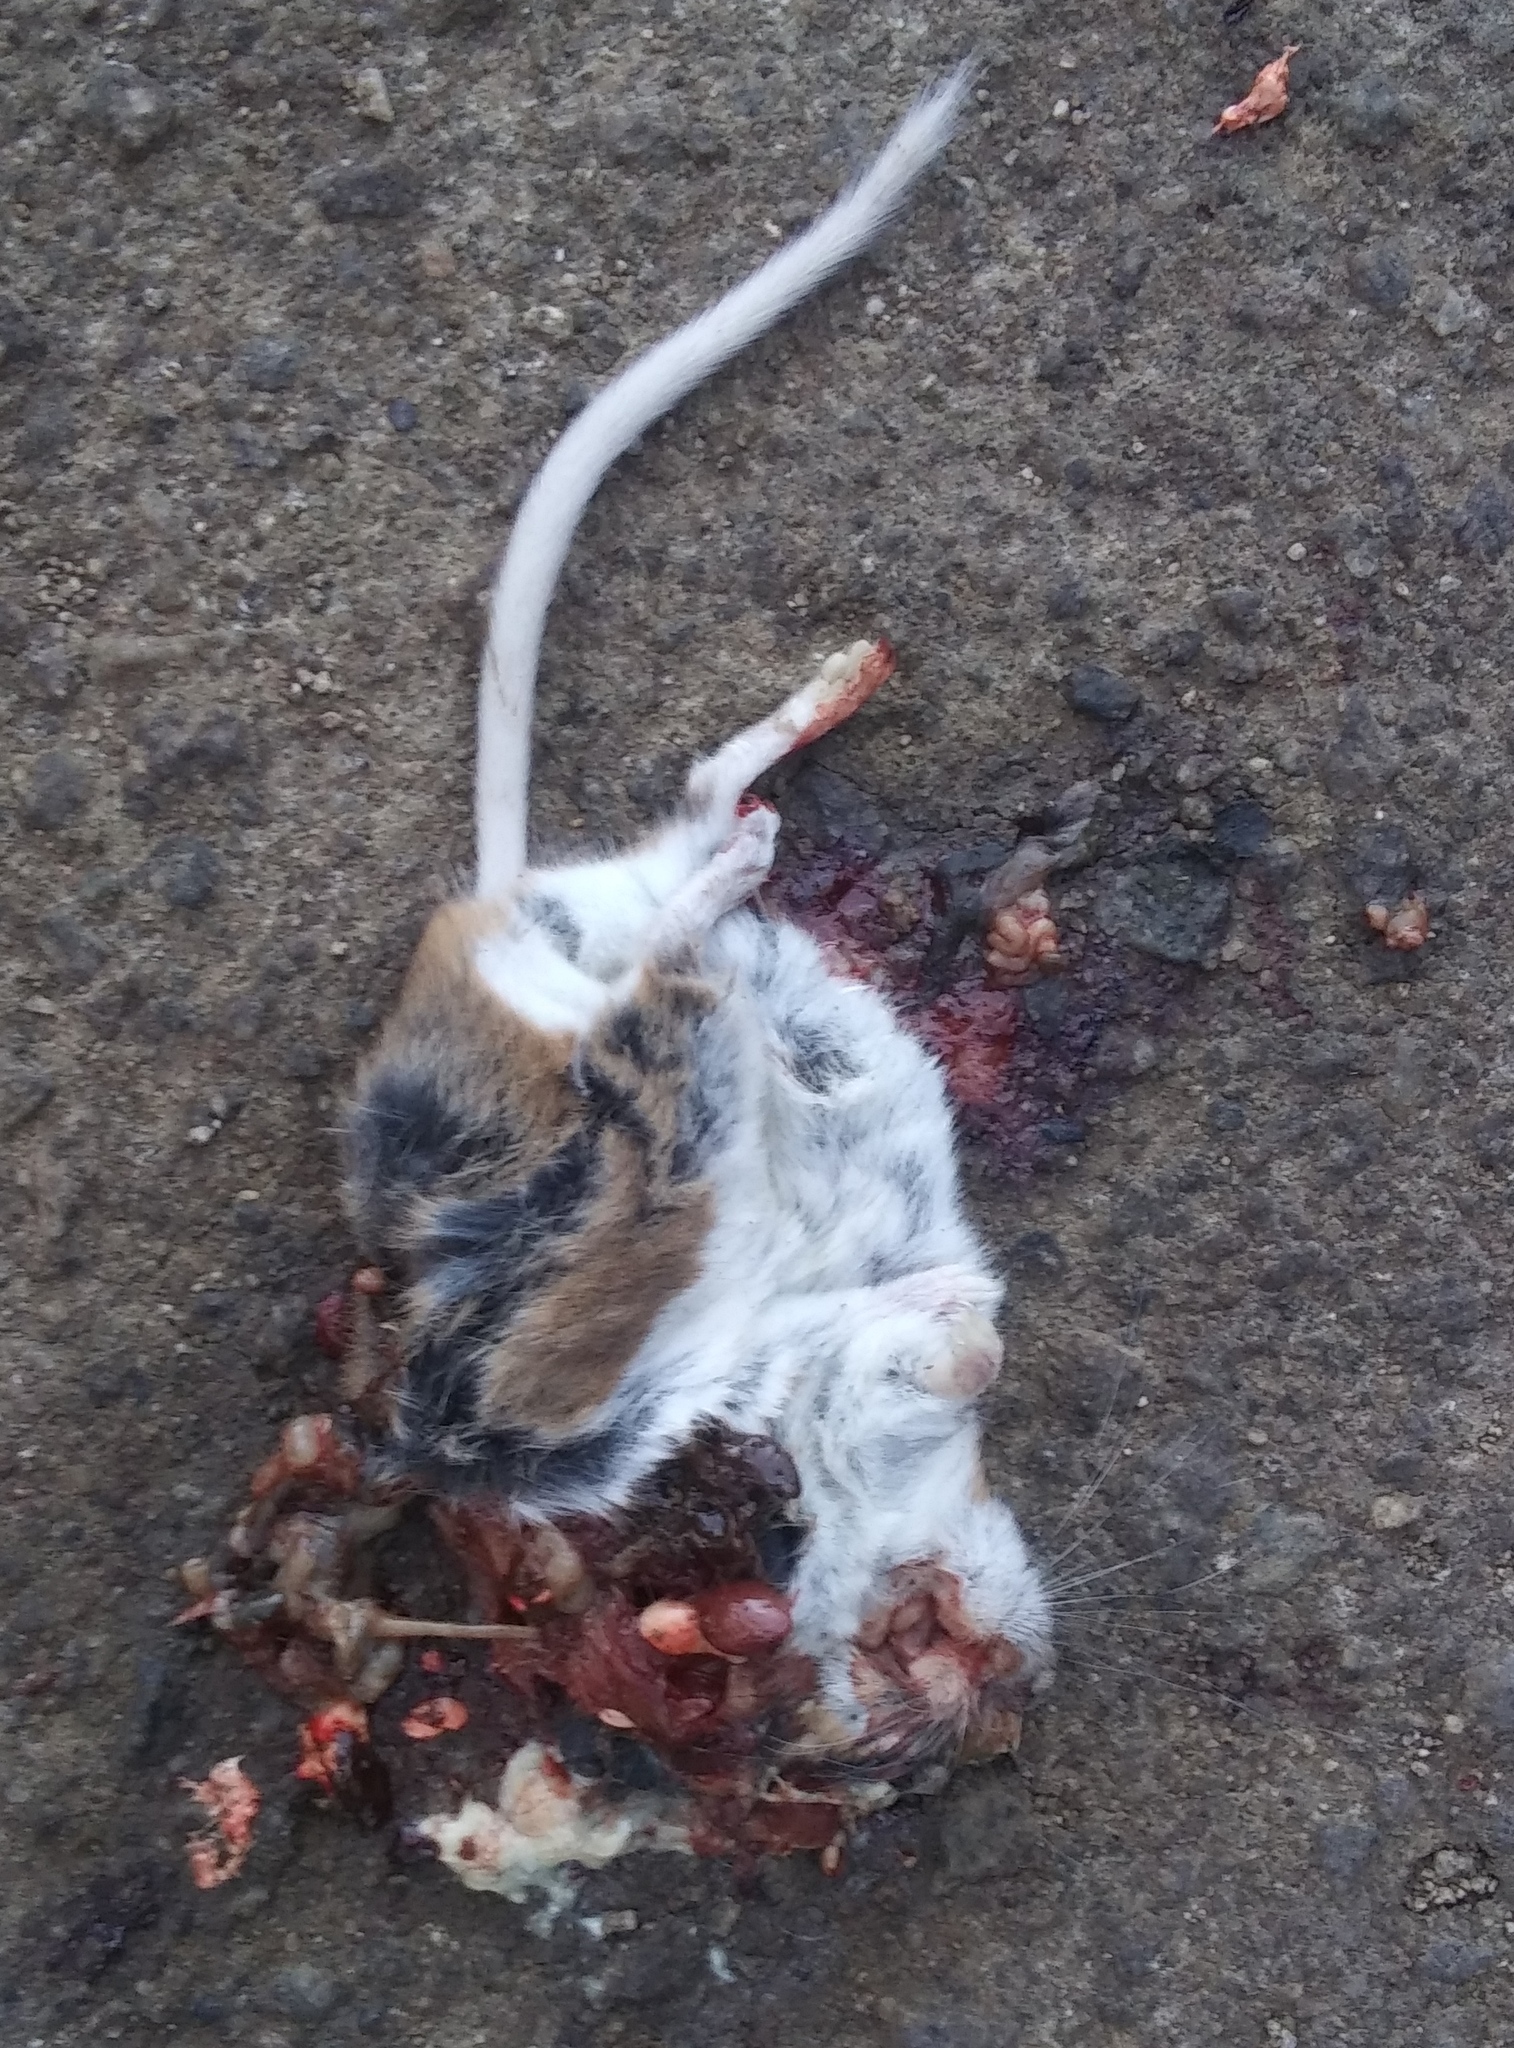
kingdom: Animalia
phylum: Chordata
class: Mammalia
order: Rodentia
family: Cricetidae
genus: Peromyscus
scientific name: Peromyscus maniculatus
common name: Deer mouse
